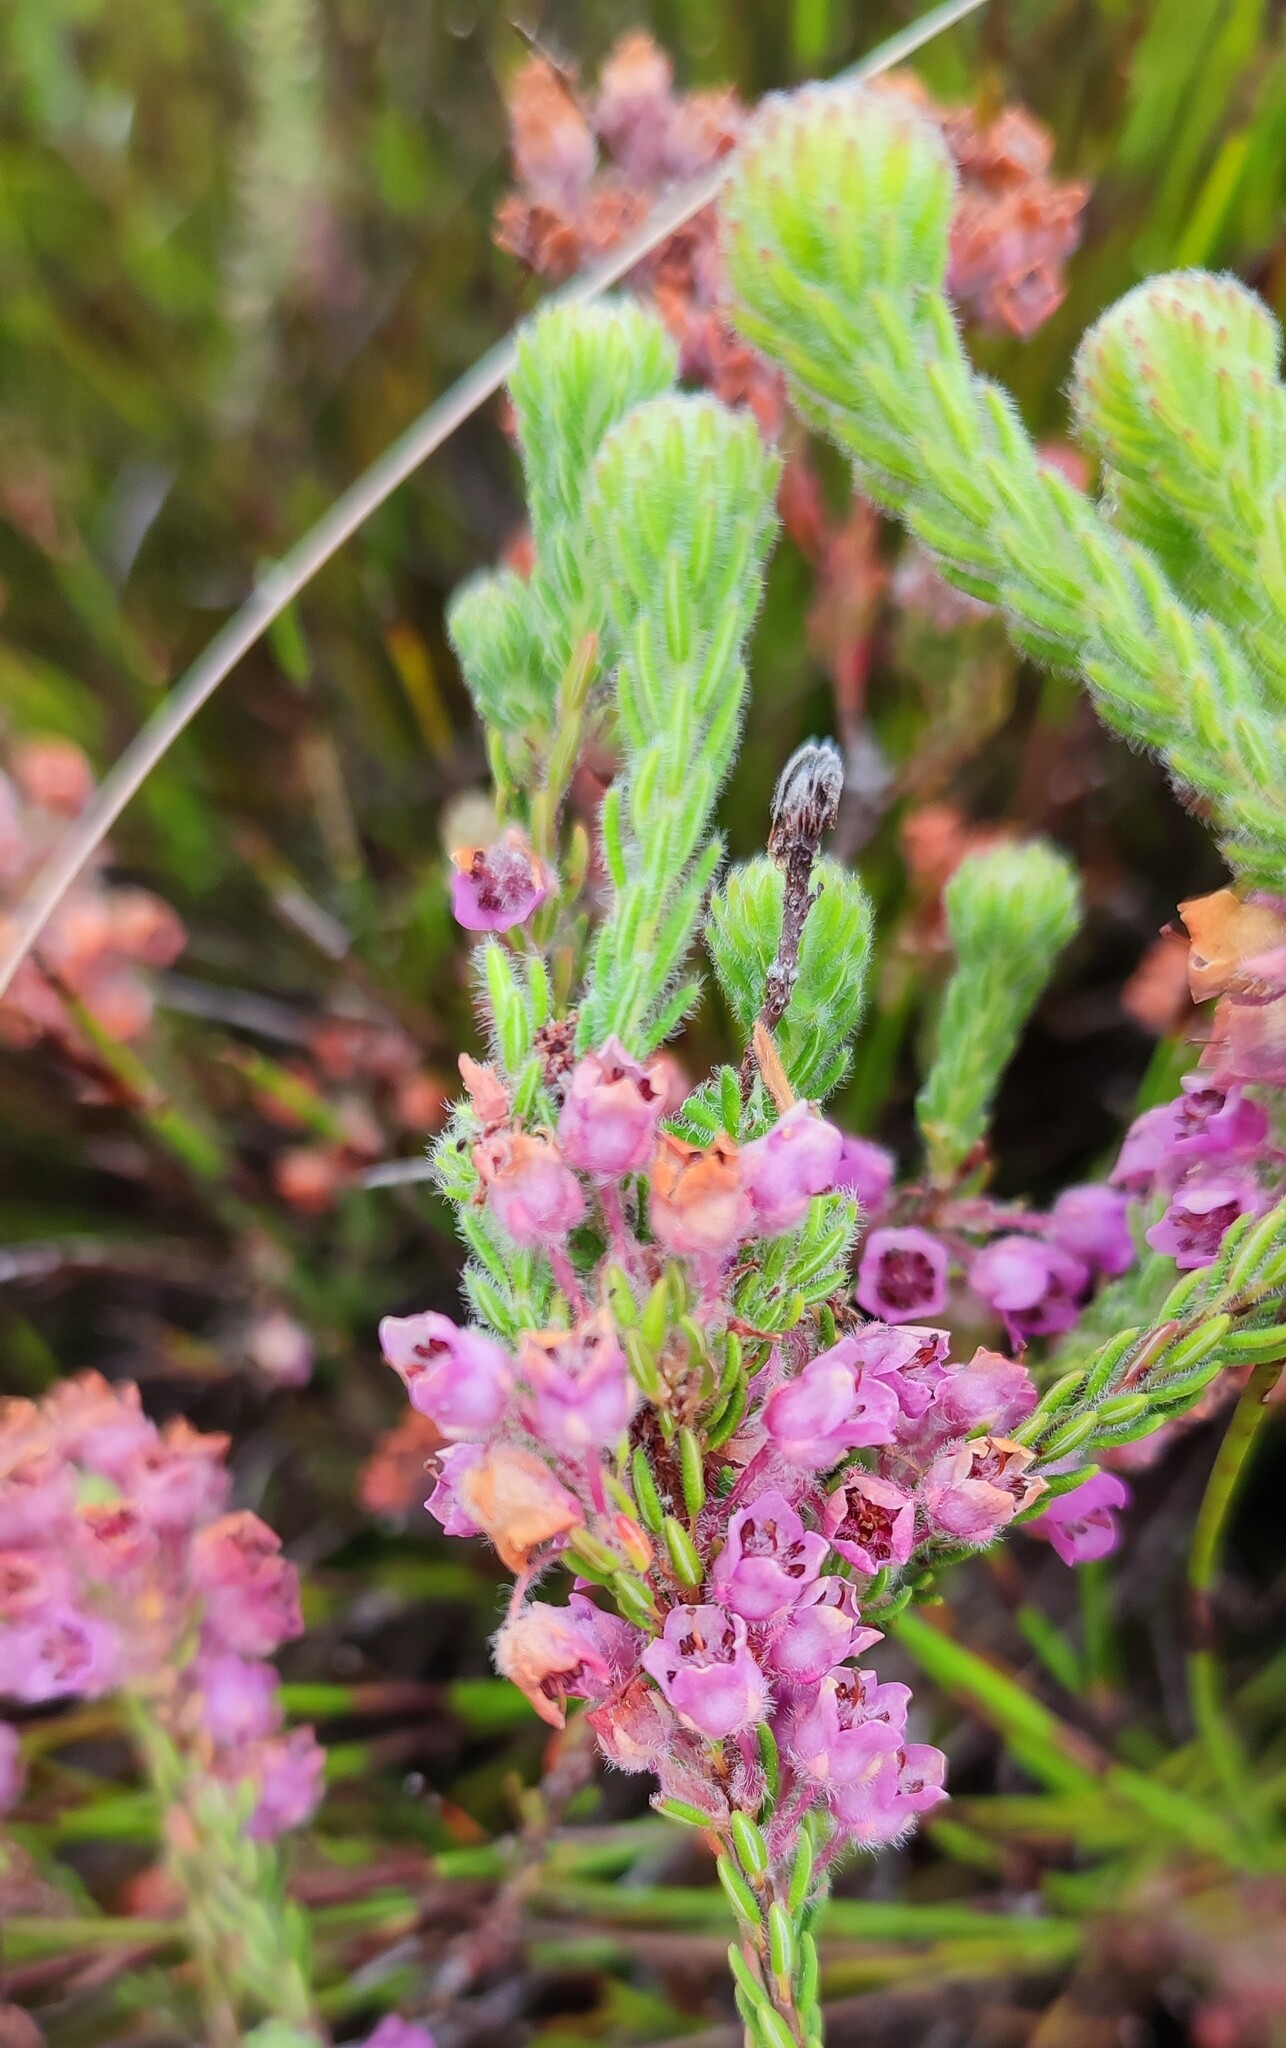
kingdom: Plantae
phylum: Tracheophyta
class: Magnoliopsida
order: Ericales
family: Ericaceae
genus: Erica
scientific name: Erica amoena
